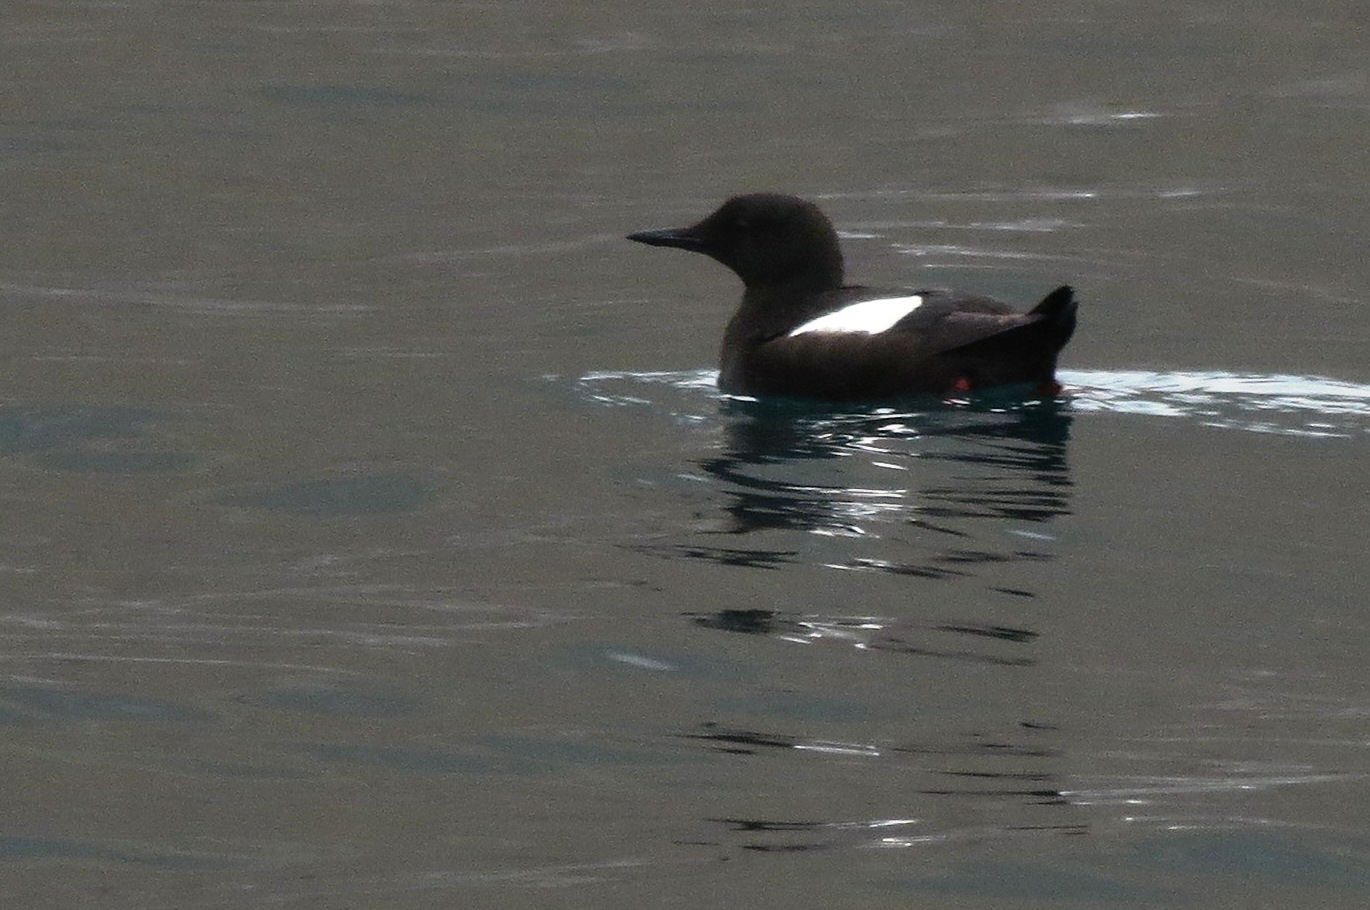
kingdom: Animalia
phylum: Chordata
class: Aves
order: Charadriiformes
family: Alcidae
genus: Cepphus
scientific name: Cepphus grylle
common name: Black guillemot
